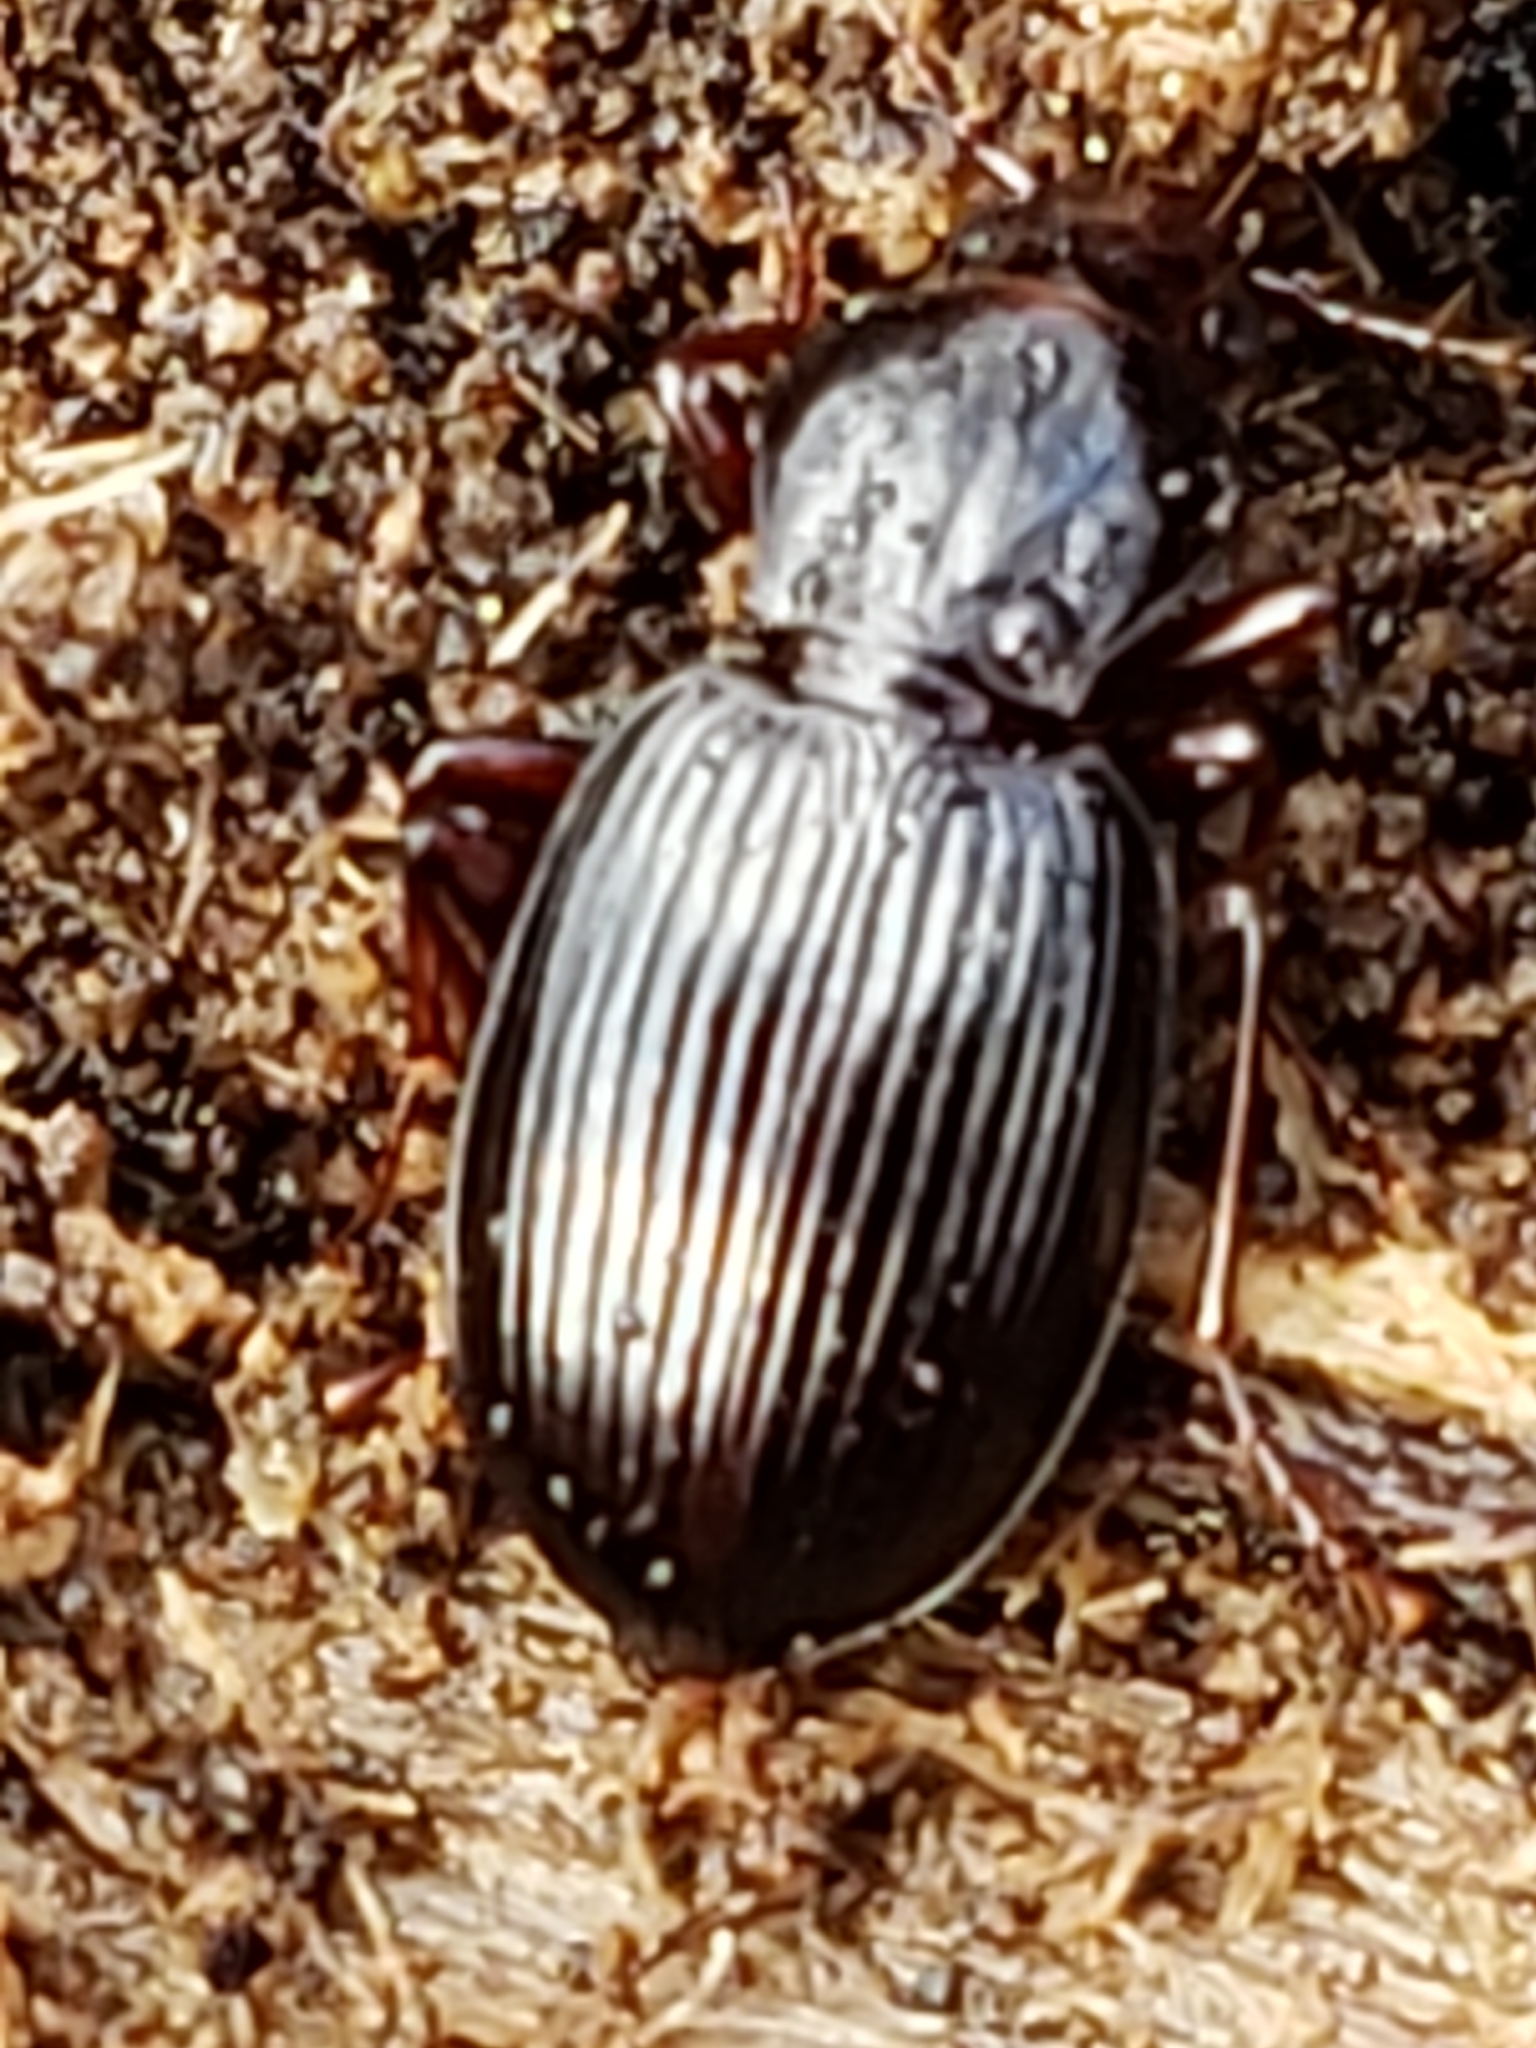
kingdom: Animalia
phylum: Arthropoda
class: Insecta
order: Coleoptera
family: Carabidae
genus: Gastrellarius
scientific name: Gastrellarius honestus
